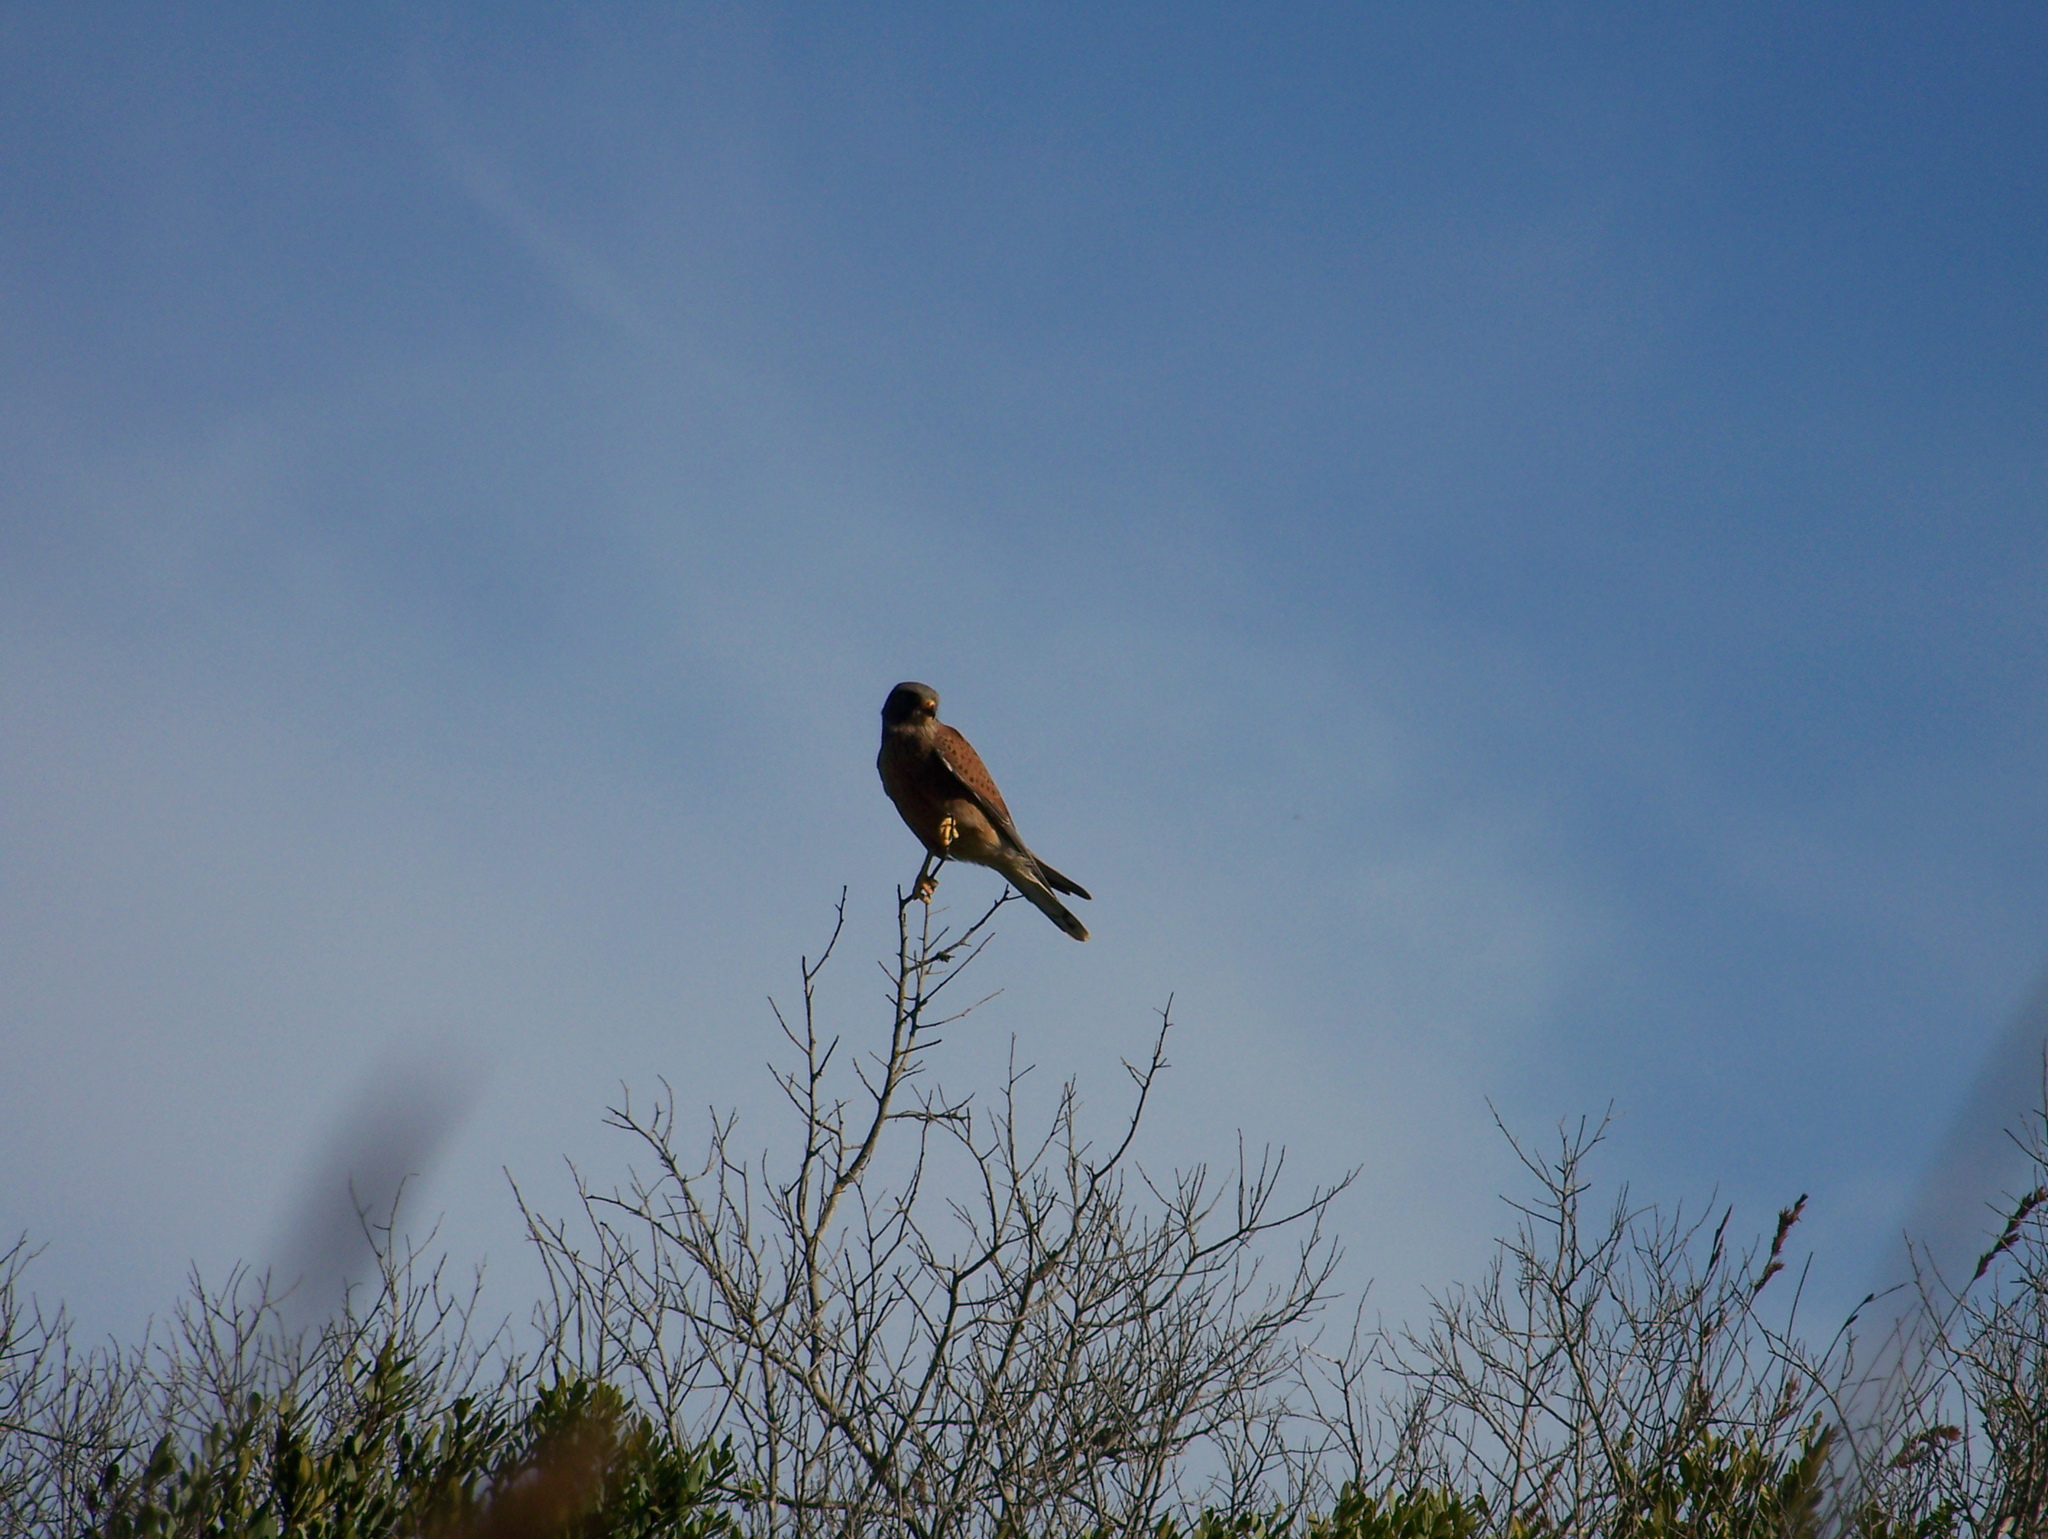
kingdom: Animalia
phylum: Chordata
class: Aves
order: Falconiformes
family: Falconidae
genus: Falco
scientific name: Falco rupicolus
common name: Rock kestrel
